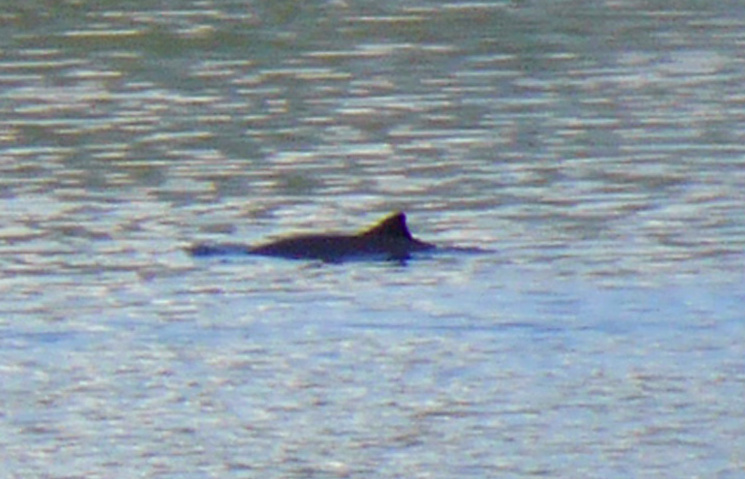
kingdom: Animalia
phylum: Chordata
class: Mammalia
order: Cetacea
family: Phocoenidae
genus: Phocoena
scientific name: Phocoena phocoena
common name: Harbor porpoise
